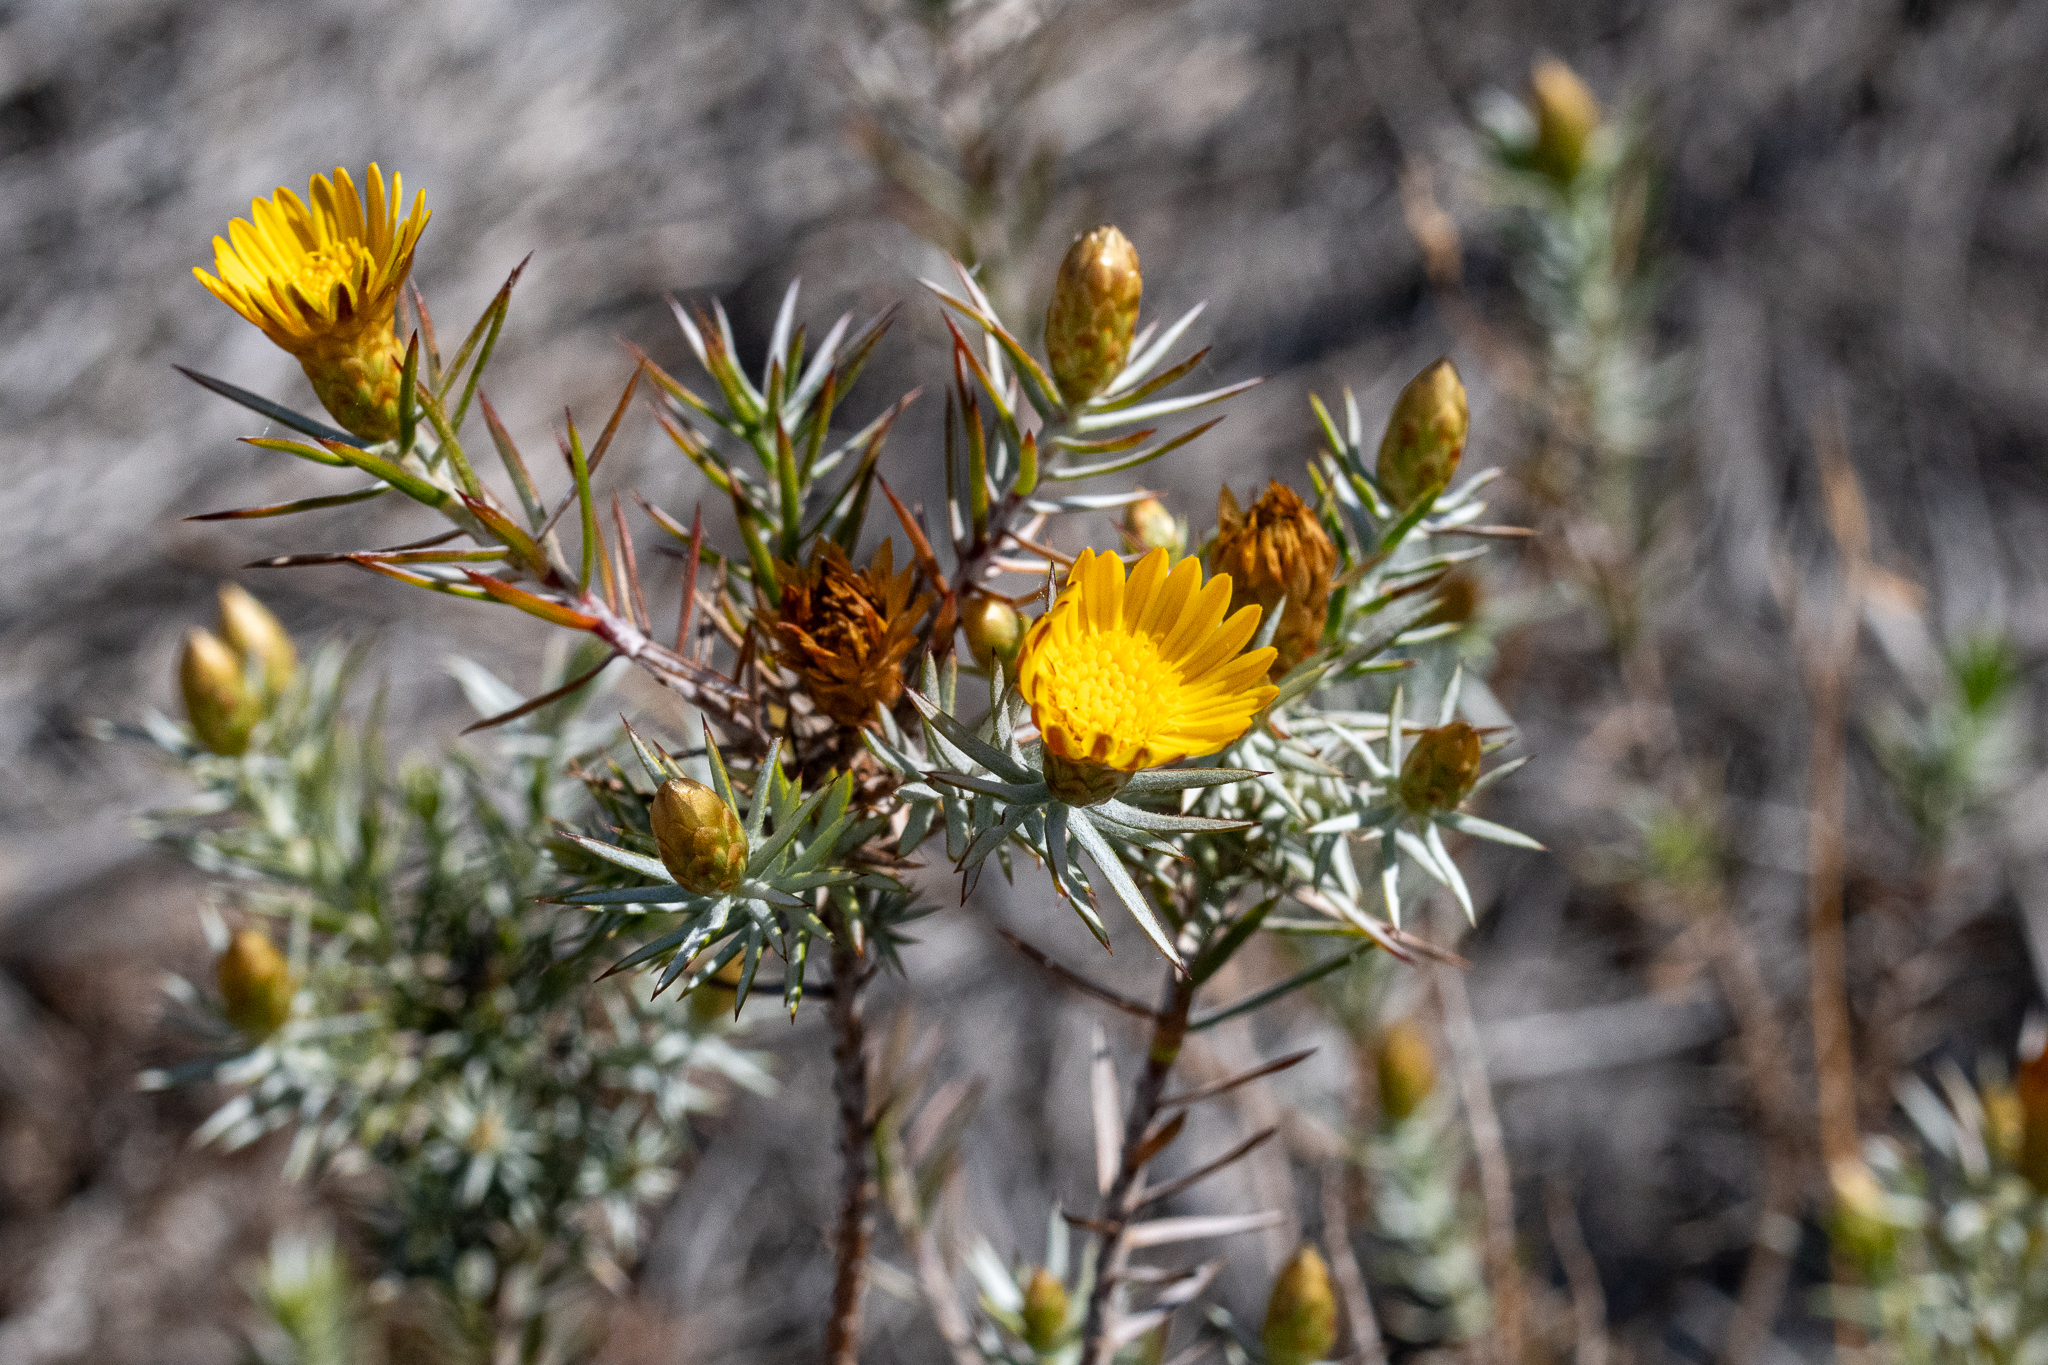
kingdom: Plantae
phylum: Tracheophyta
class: Magnoliopsida
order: Asterales
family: Asteraceae
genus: Oedera
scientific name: Oedera pungens
